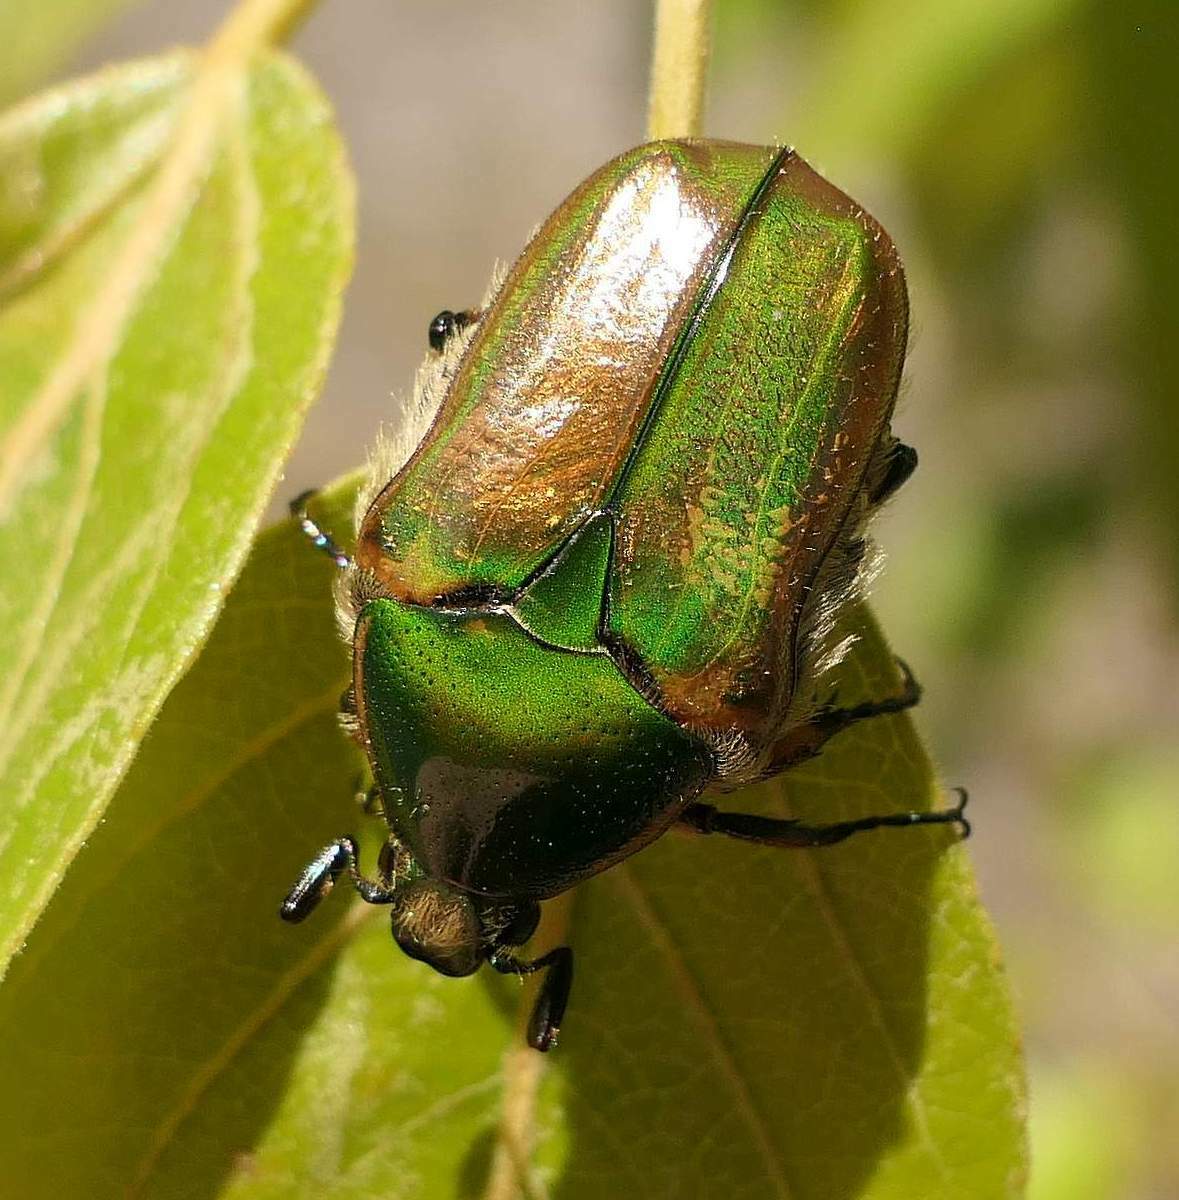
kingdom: Animalia
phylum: Arthropoda
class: Insecta
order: Coleoptera
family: Scarabaeidae
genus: Euphoria
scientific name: Euphoria fulgida
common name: Emerald euphoria
